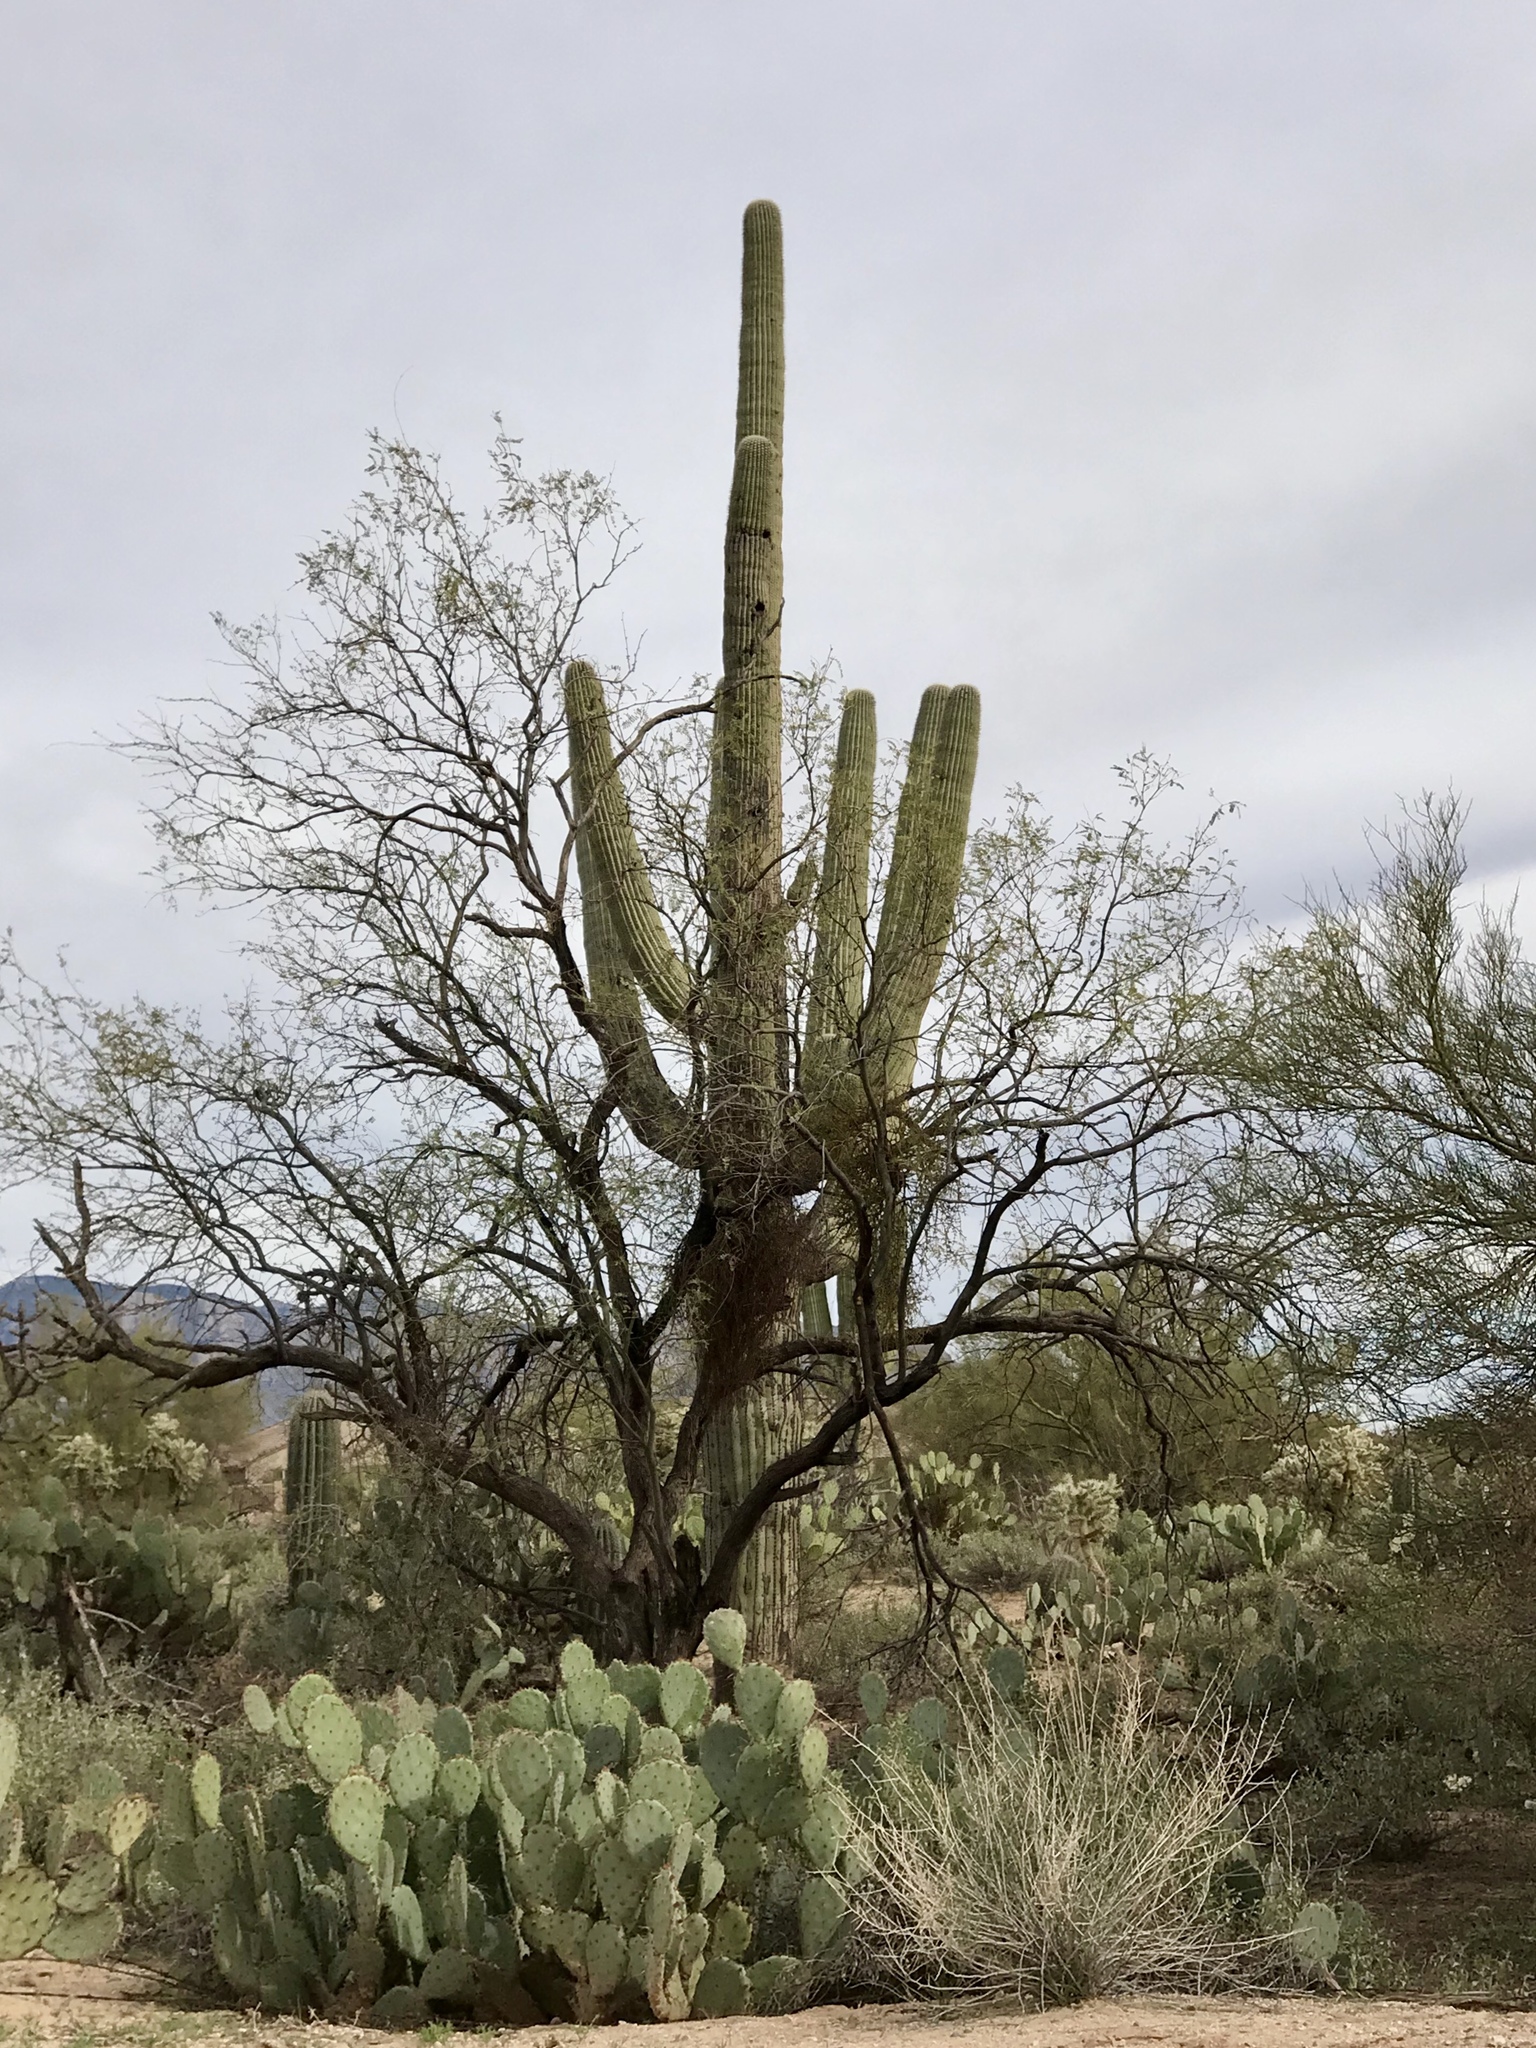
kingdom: Plantae
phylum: Tracheophyta
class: Magnoliopsida
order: Caryophyllales
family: Cactaceae
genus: Carnegiea
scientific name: Carnegiea gigantea
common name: Saguaro
